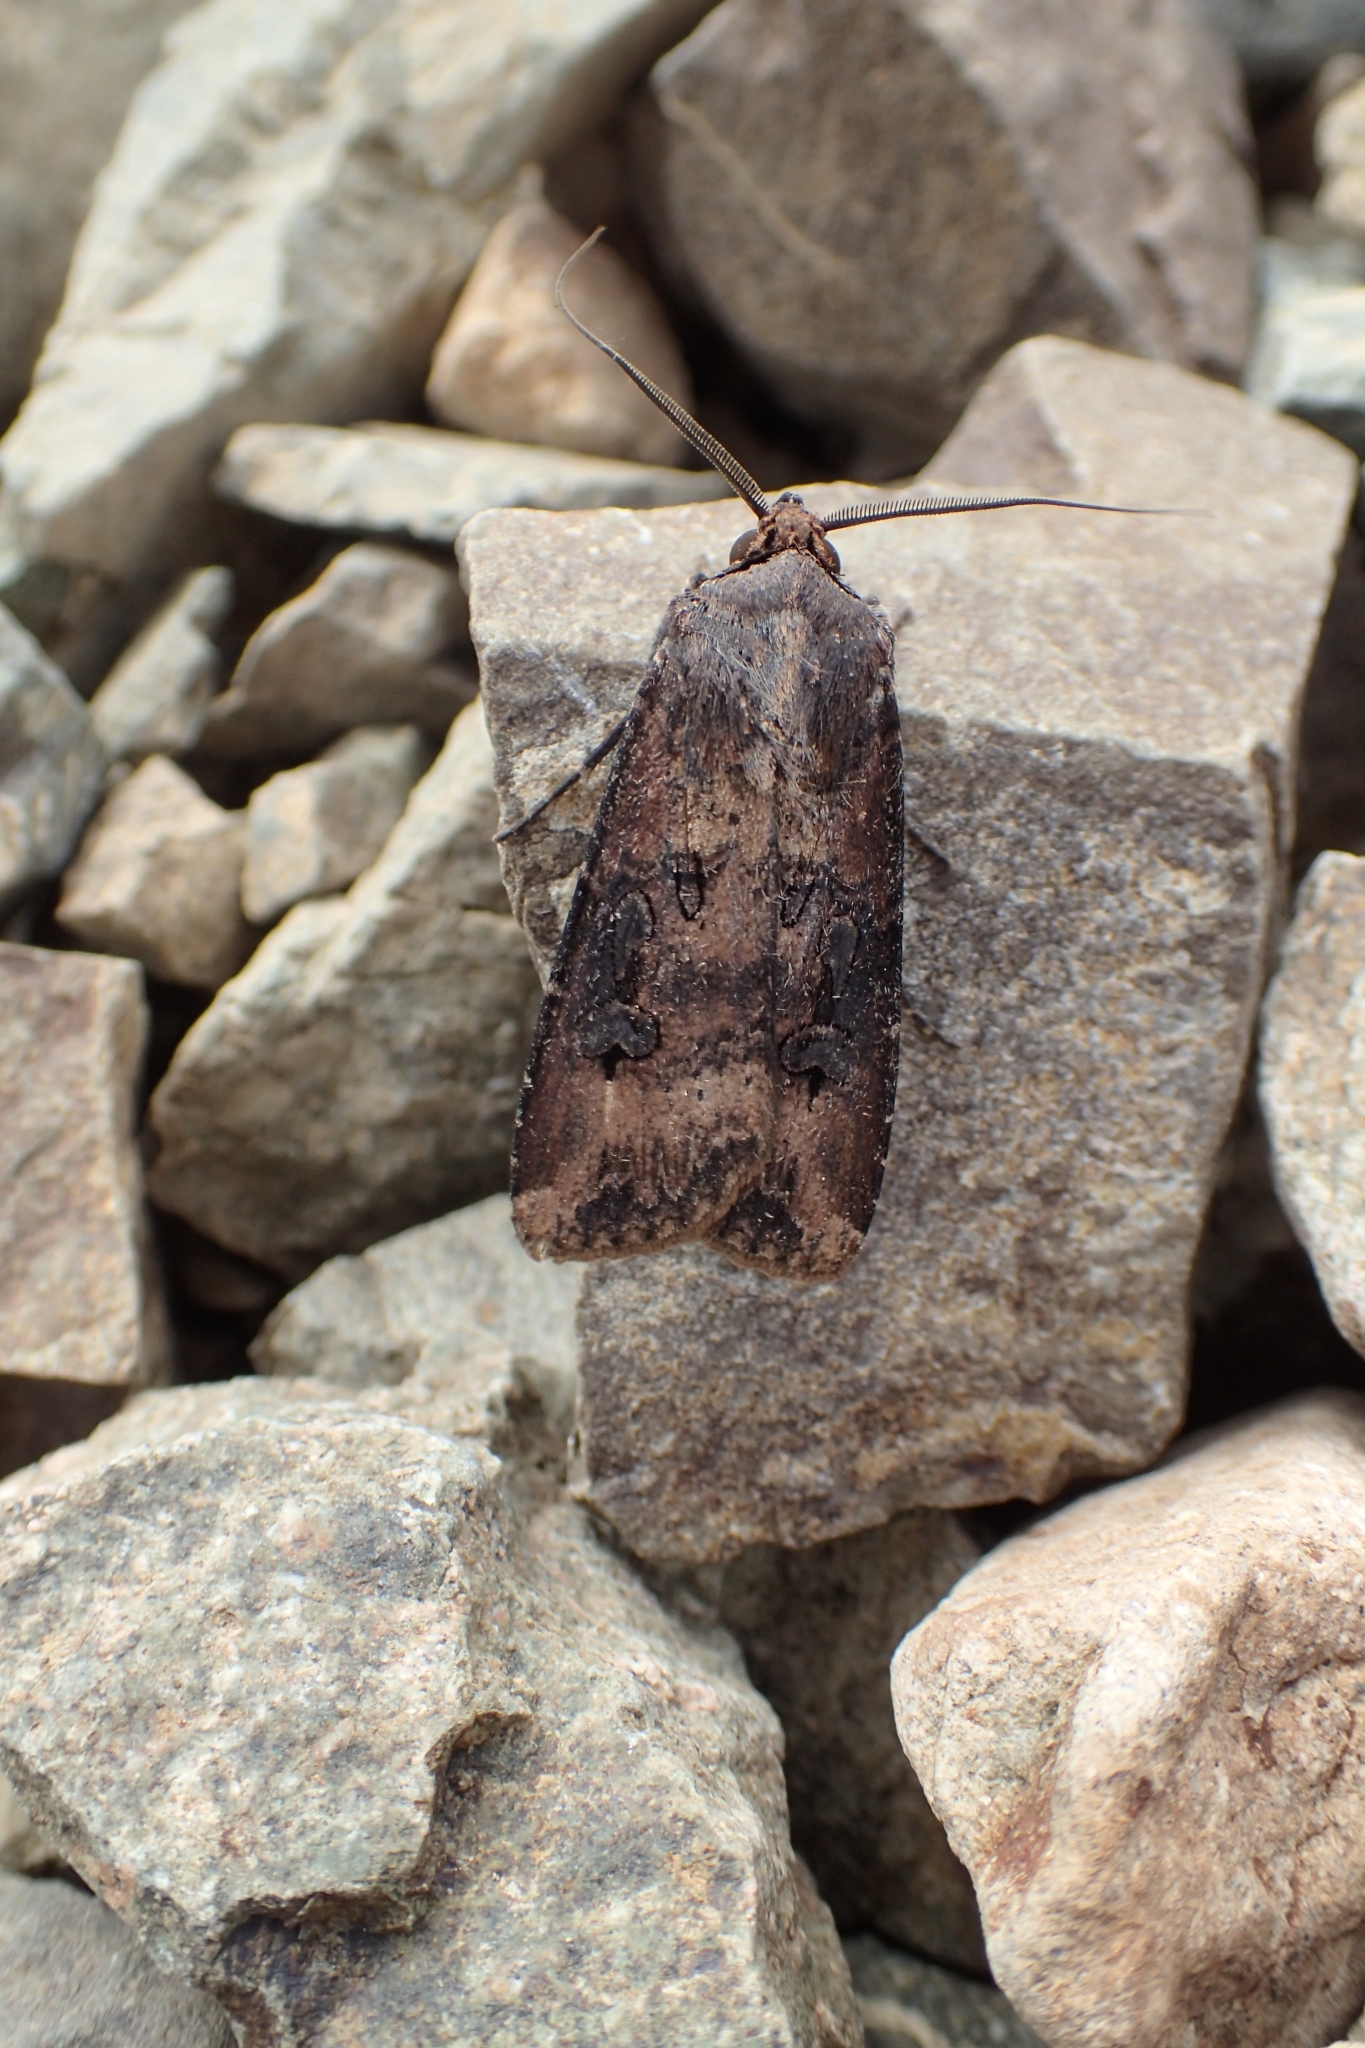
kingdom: Animalia
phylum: Arthropoda
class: Insecta
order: Lepidoptera
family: Noctuidae
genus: Agrotis
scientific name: Agrotis ipsilon
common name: Dark sword-grass
